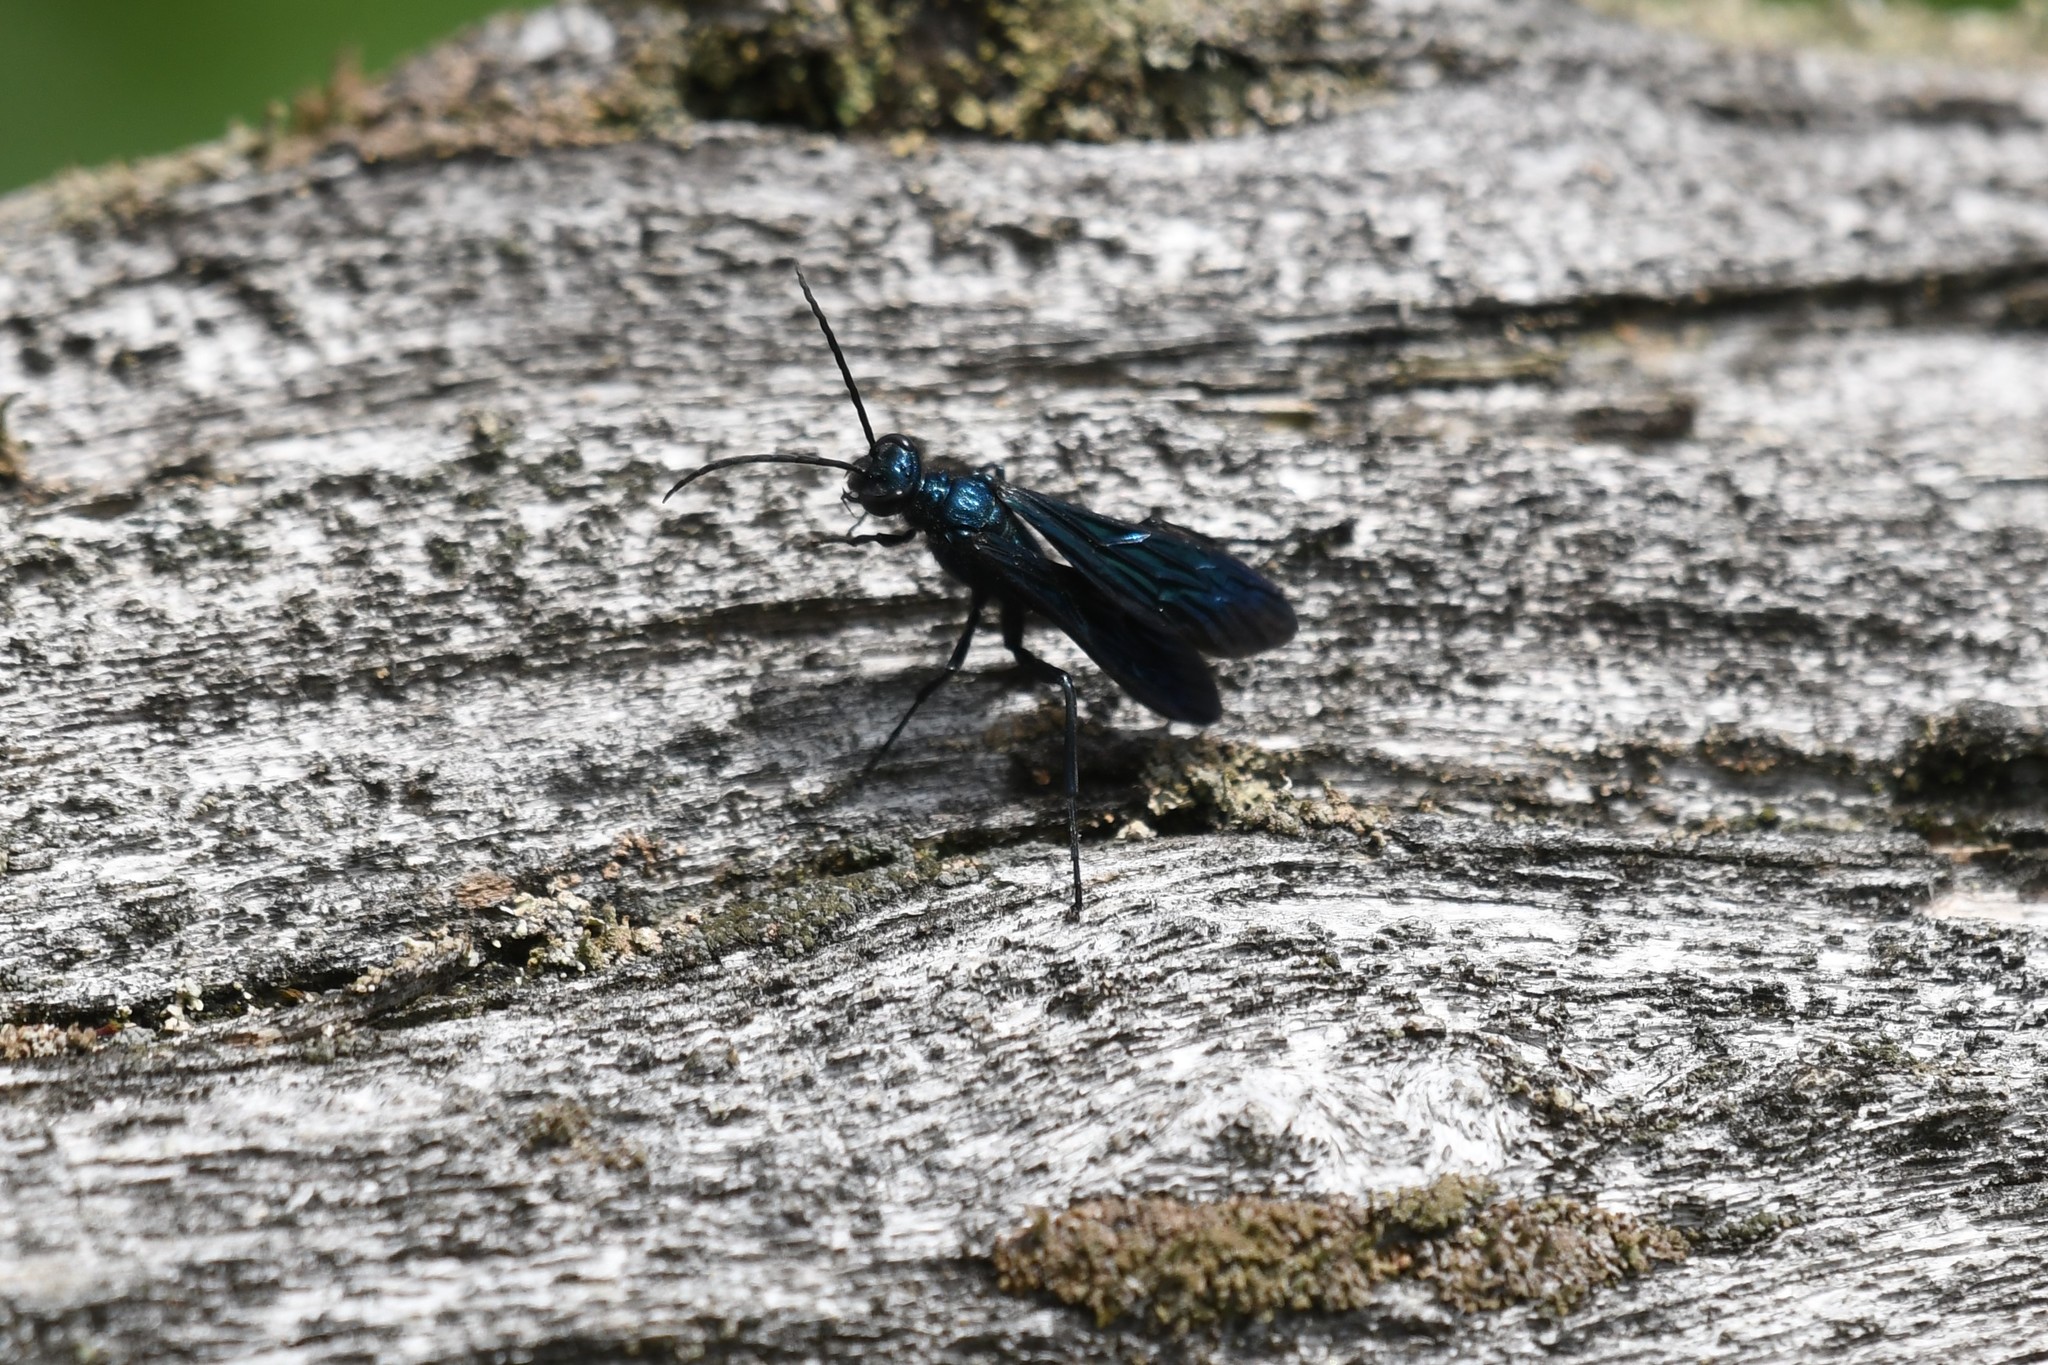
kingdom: Animalia
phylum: Arthropoda
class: Insecta
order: Hymenoptera
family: Sphecidae
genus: Chalybion
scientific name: Chalybion californicum
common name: Mud dauber
